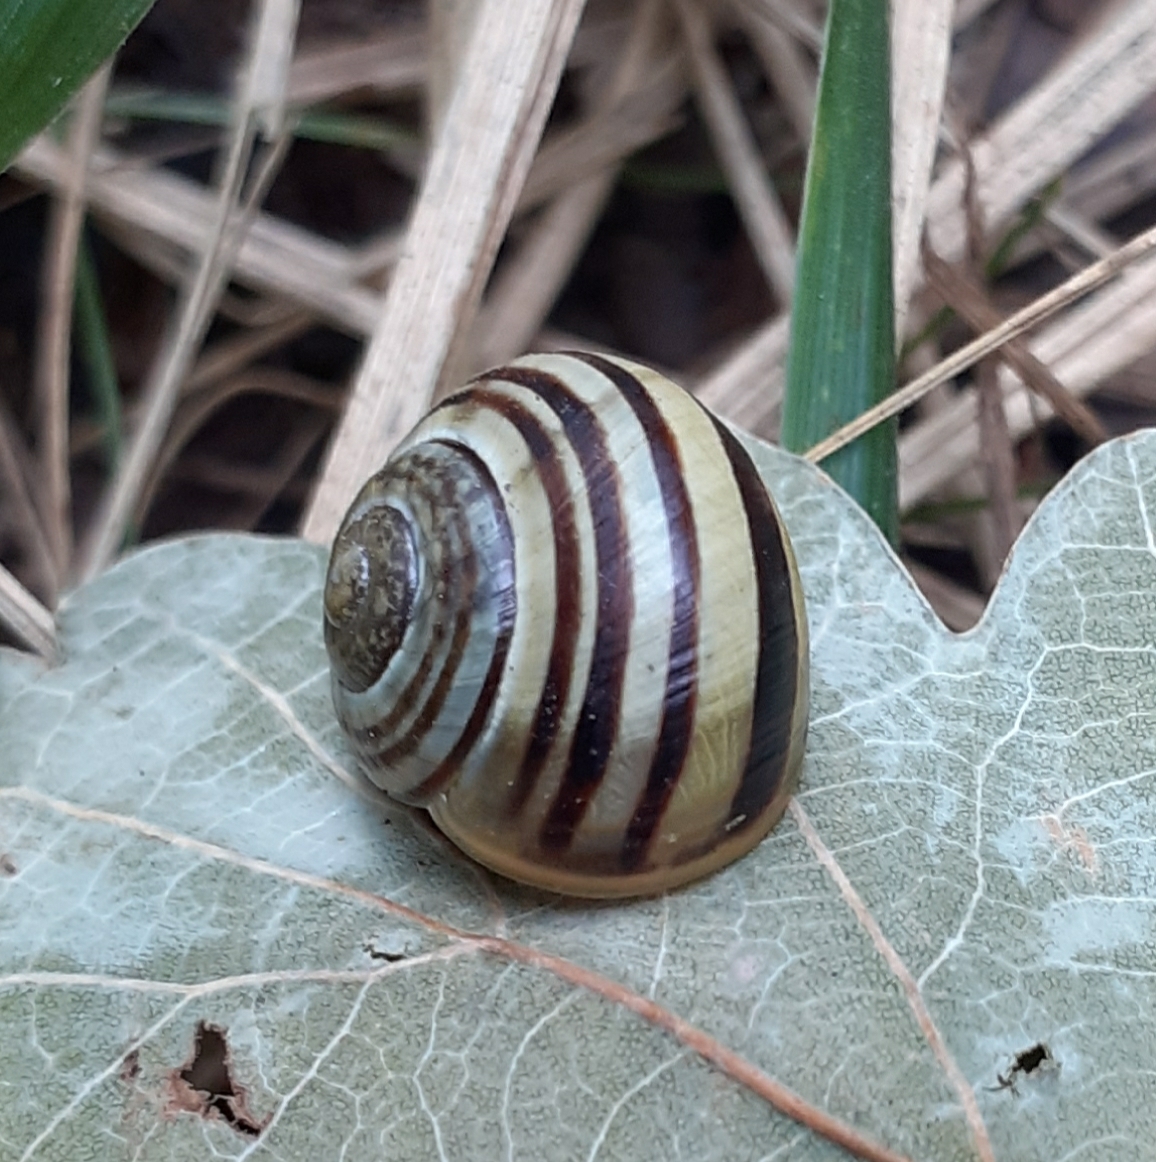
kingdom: Animalia
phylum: Mollusca
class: Gastropoda
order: Stylommatophora
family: Helicidae
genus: Cepaea
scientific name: Cepaea
